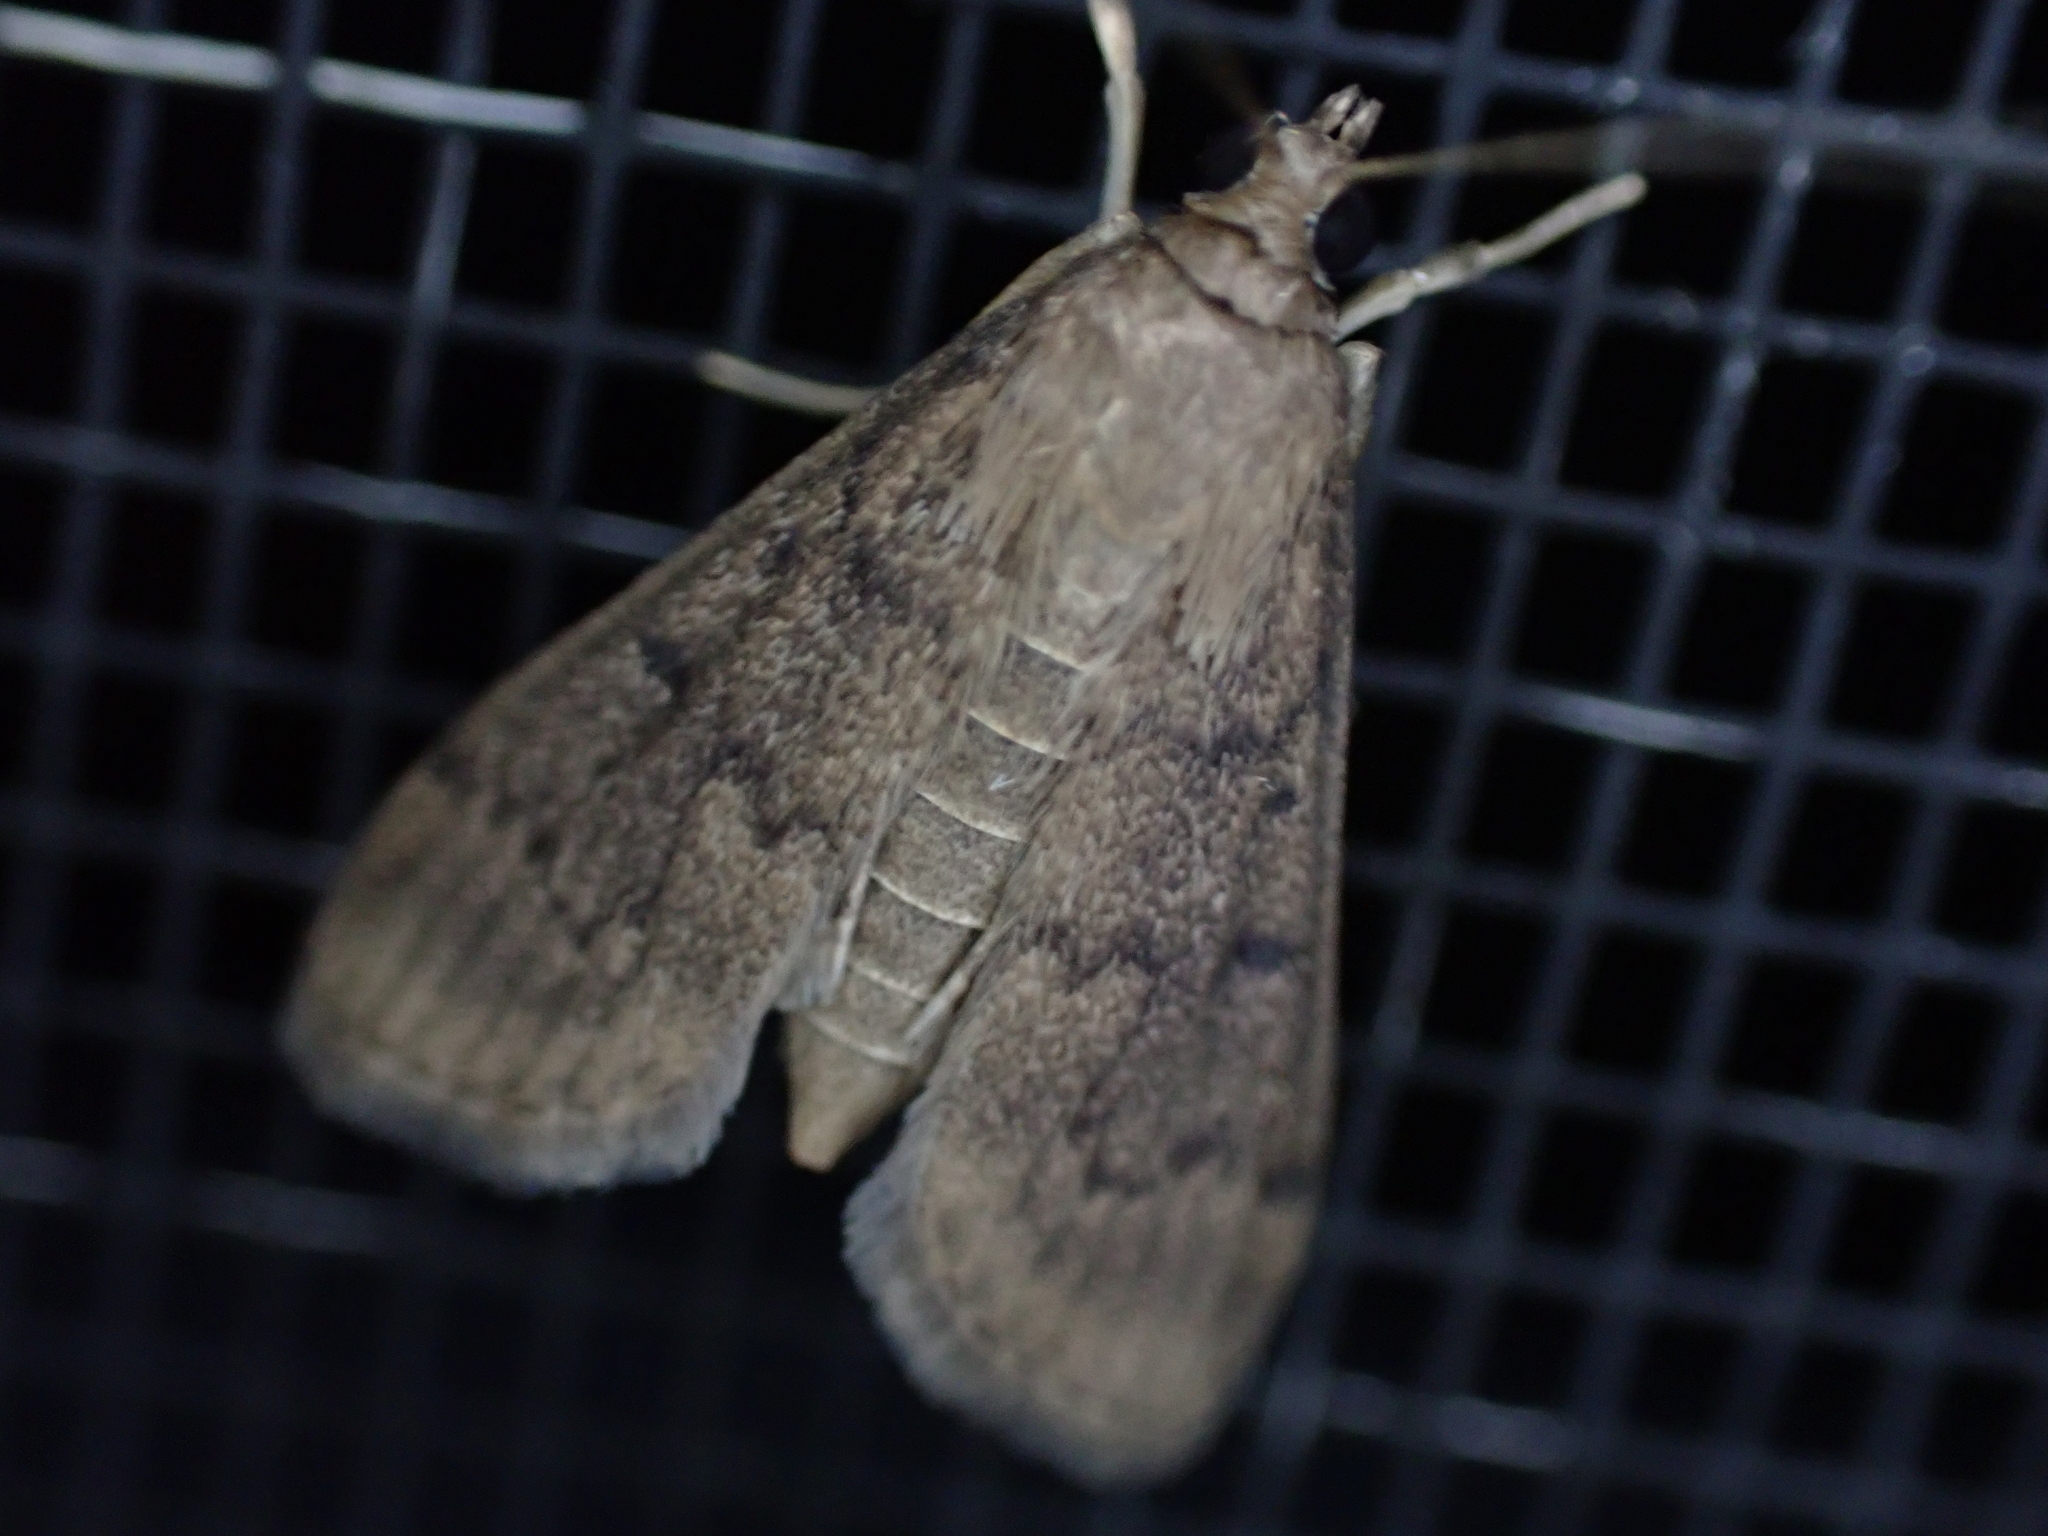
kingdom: Animalia
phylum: Arthropoda
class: Insecta
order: Lepidoptera
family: Crambidae
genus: Herpetogramma
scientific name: Herpetogramma phaeopteralis
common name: Dusky herpetogramma moth
